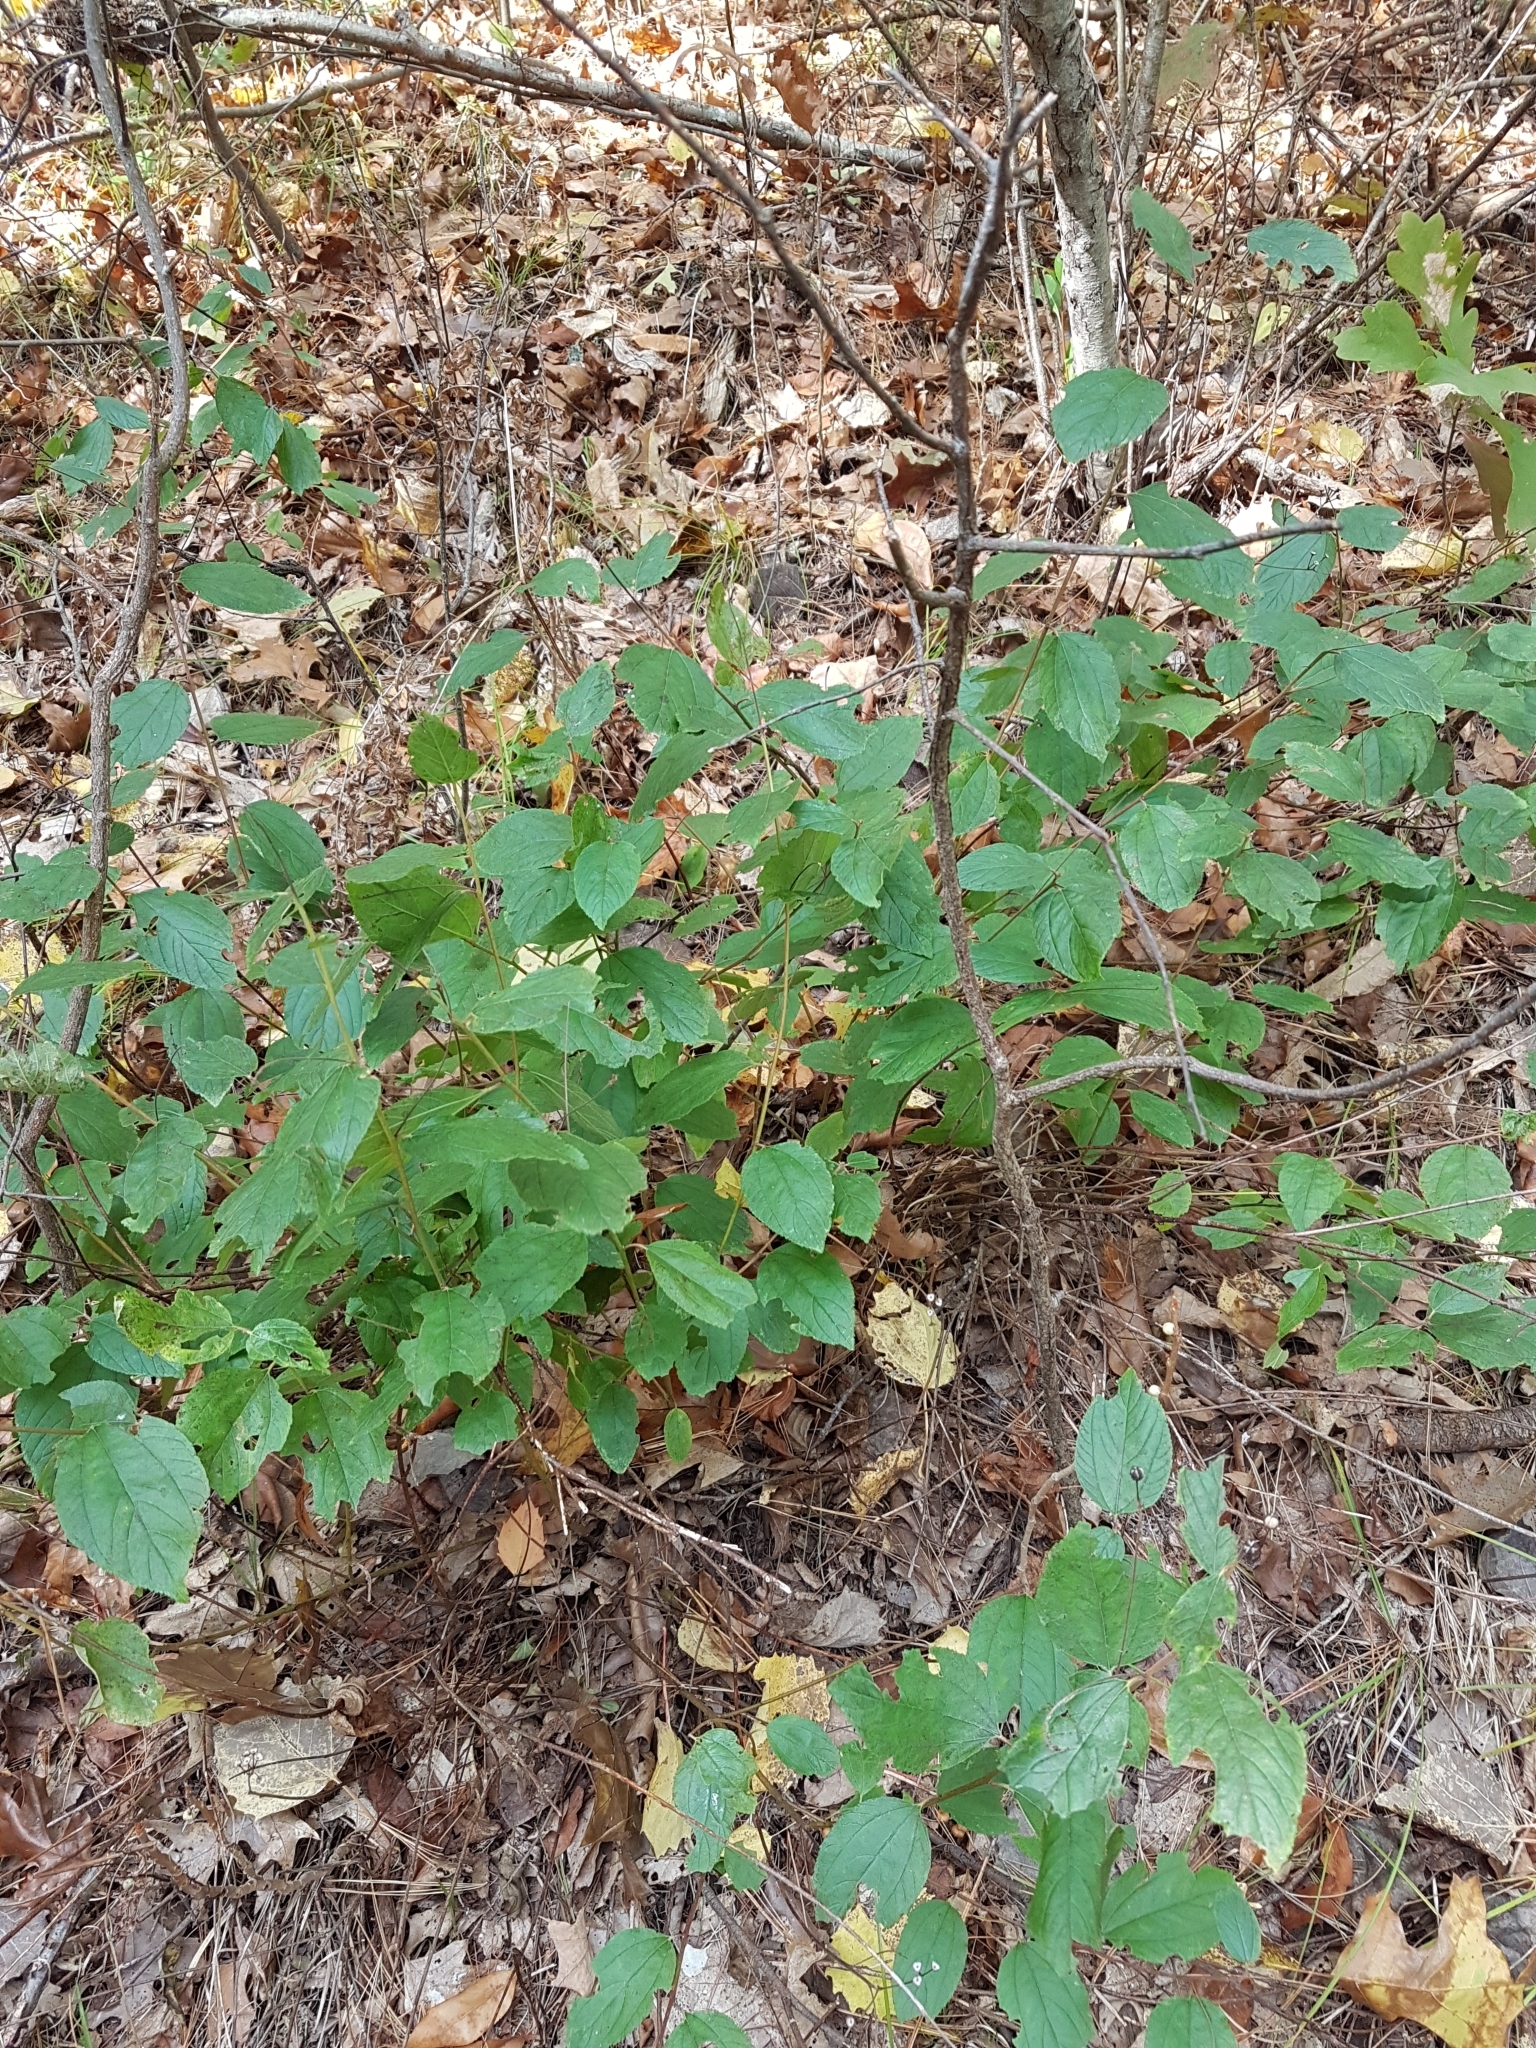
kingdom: Plantae
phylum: Tracheophyta
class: Magnoliopsida
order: Rosales
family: Rhamnaceae
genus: Ceanothus
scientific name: Ceanothus americanus
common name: Redroot
